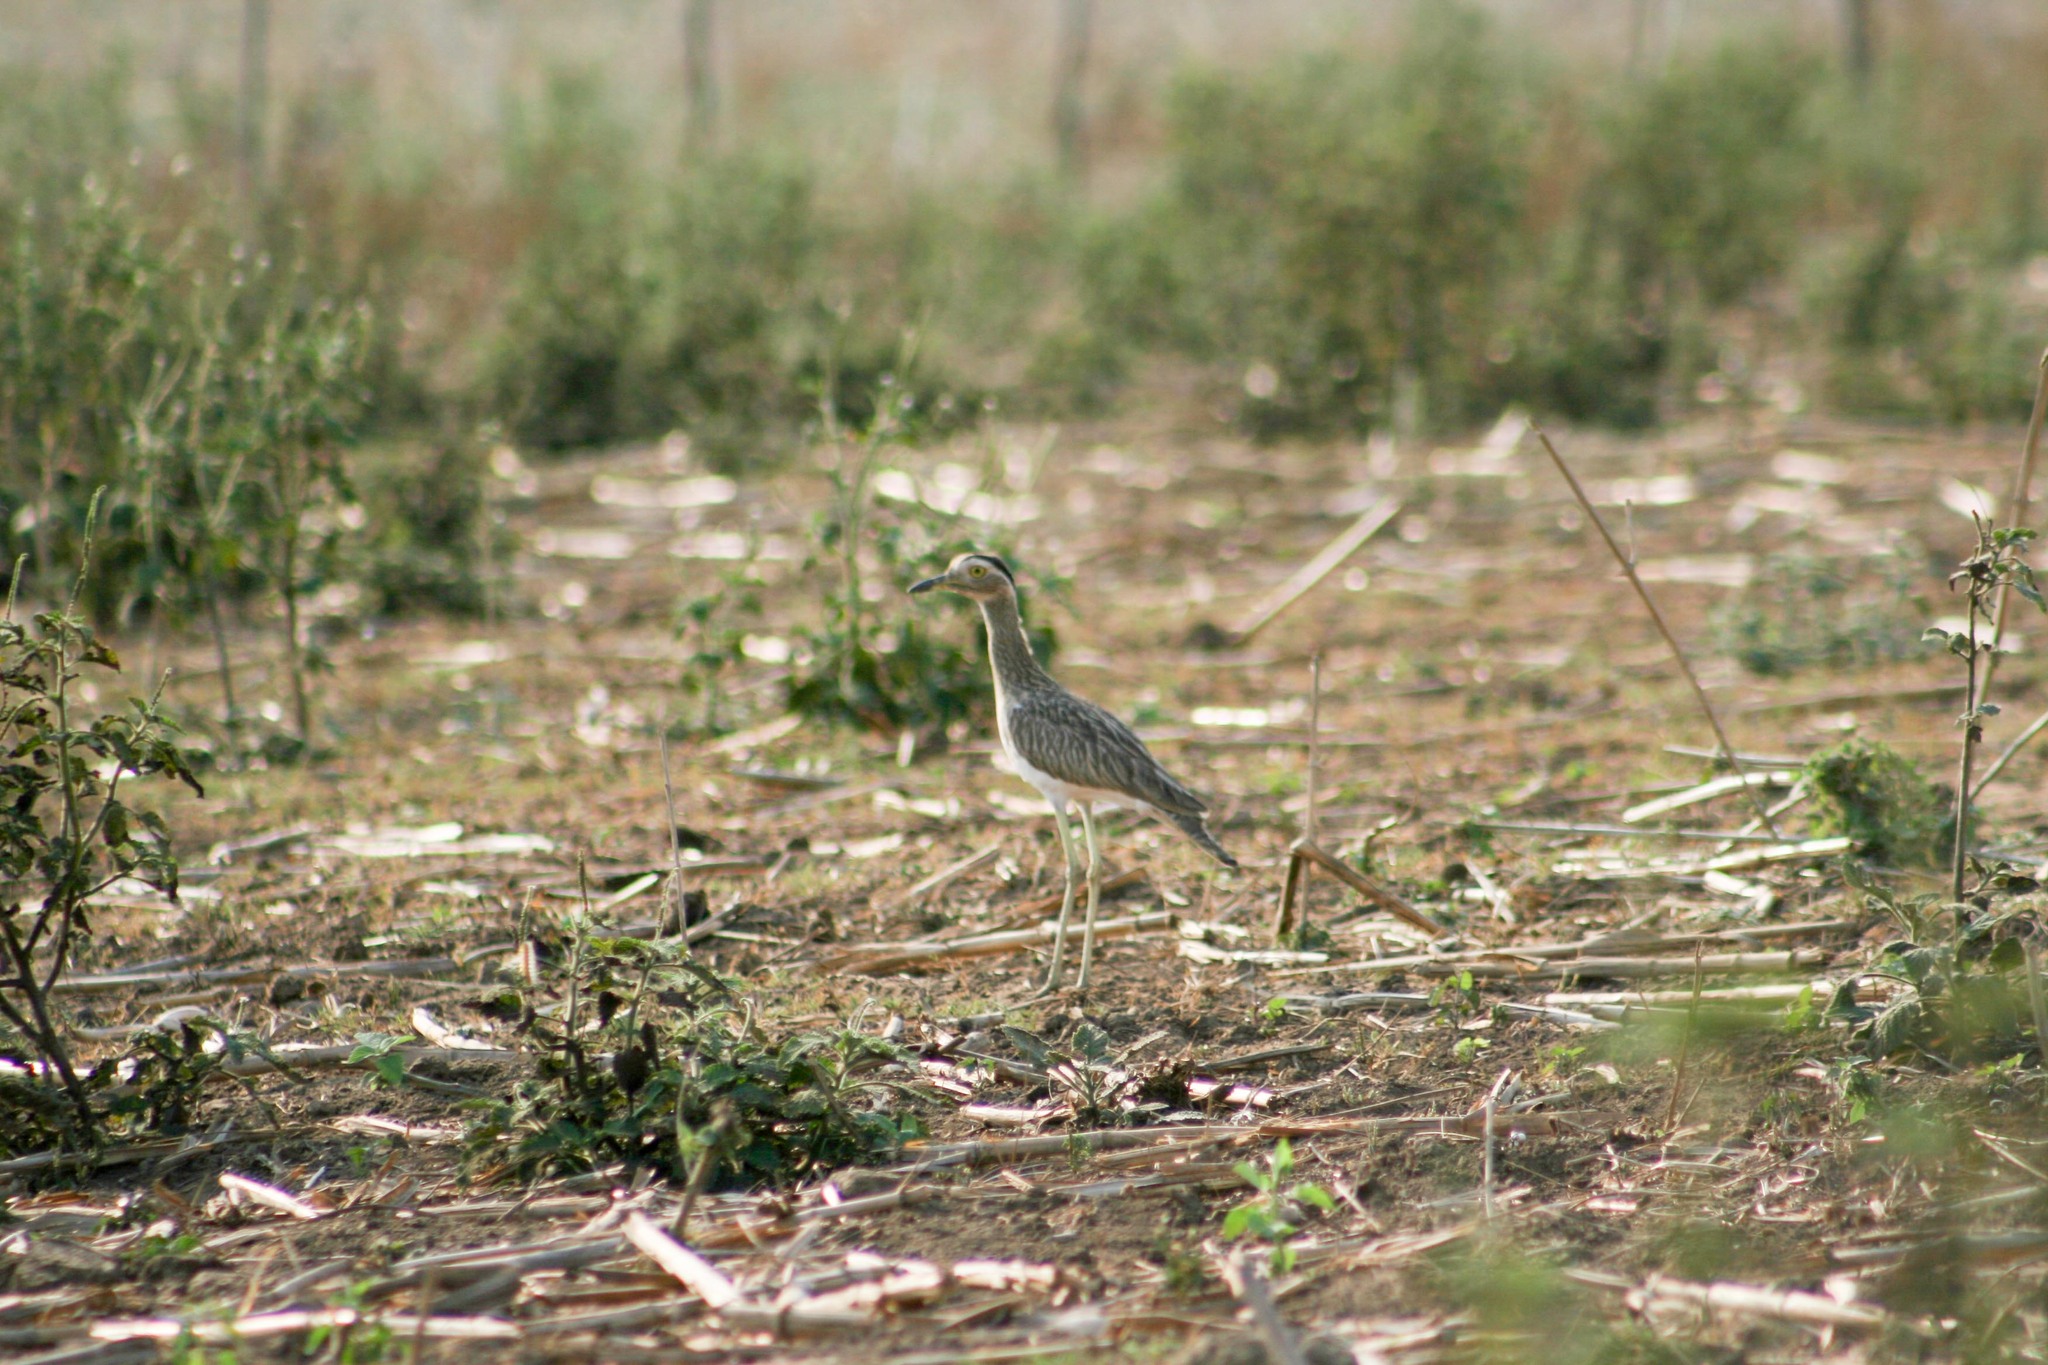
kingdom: Animalia
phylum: Chordata
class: Aves
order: Charadriiformes
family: Burhinidae
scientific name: Burhinidae
